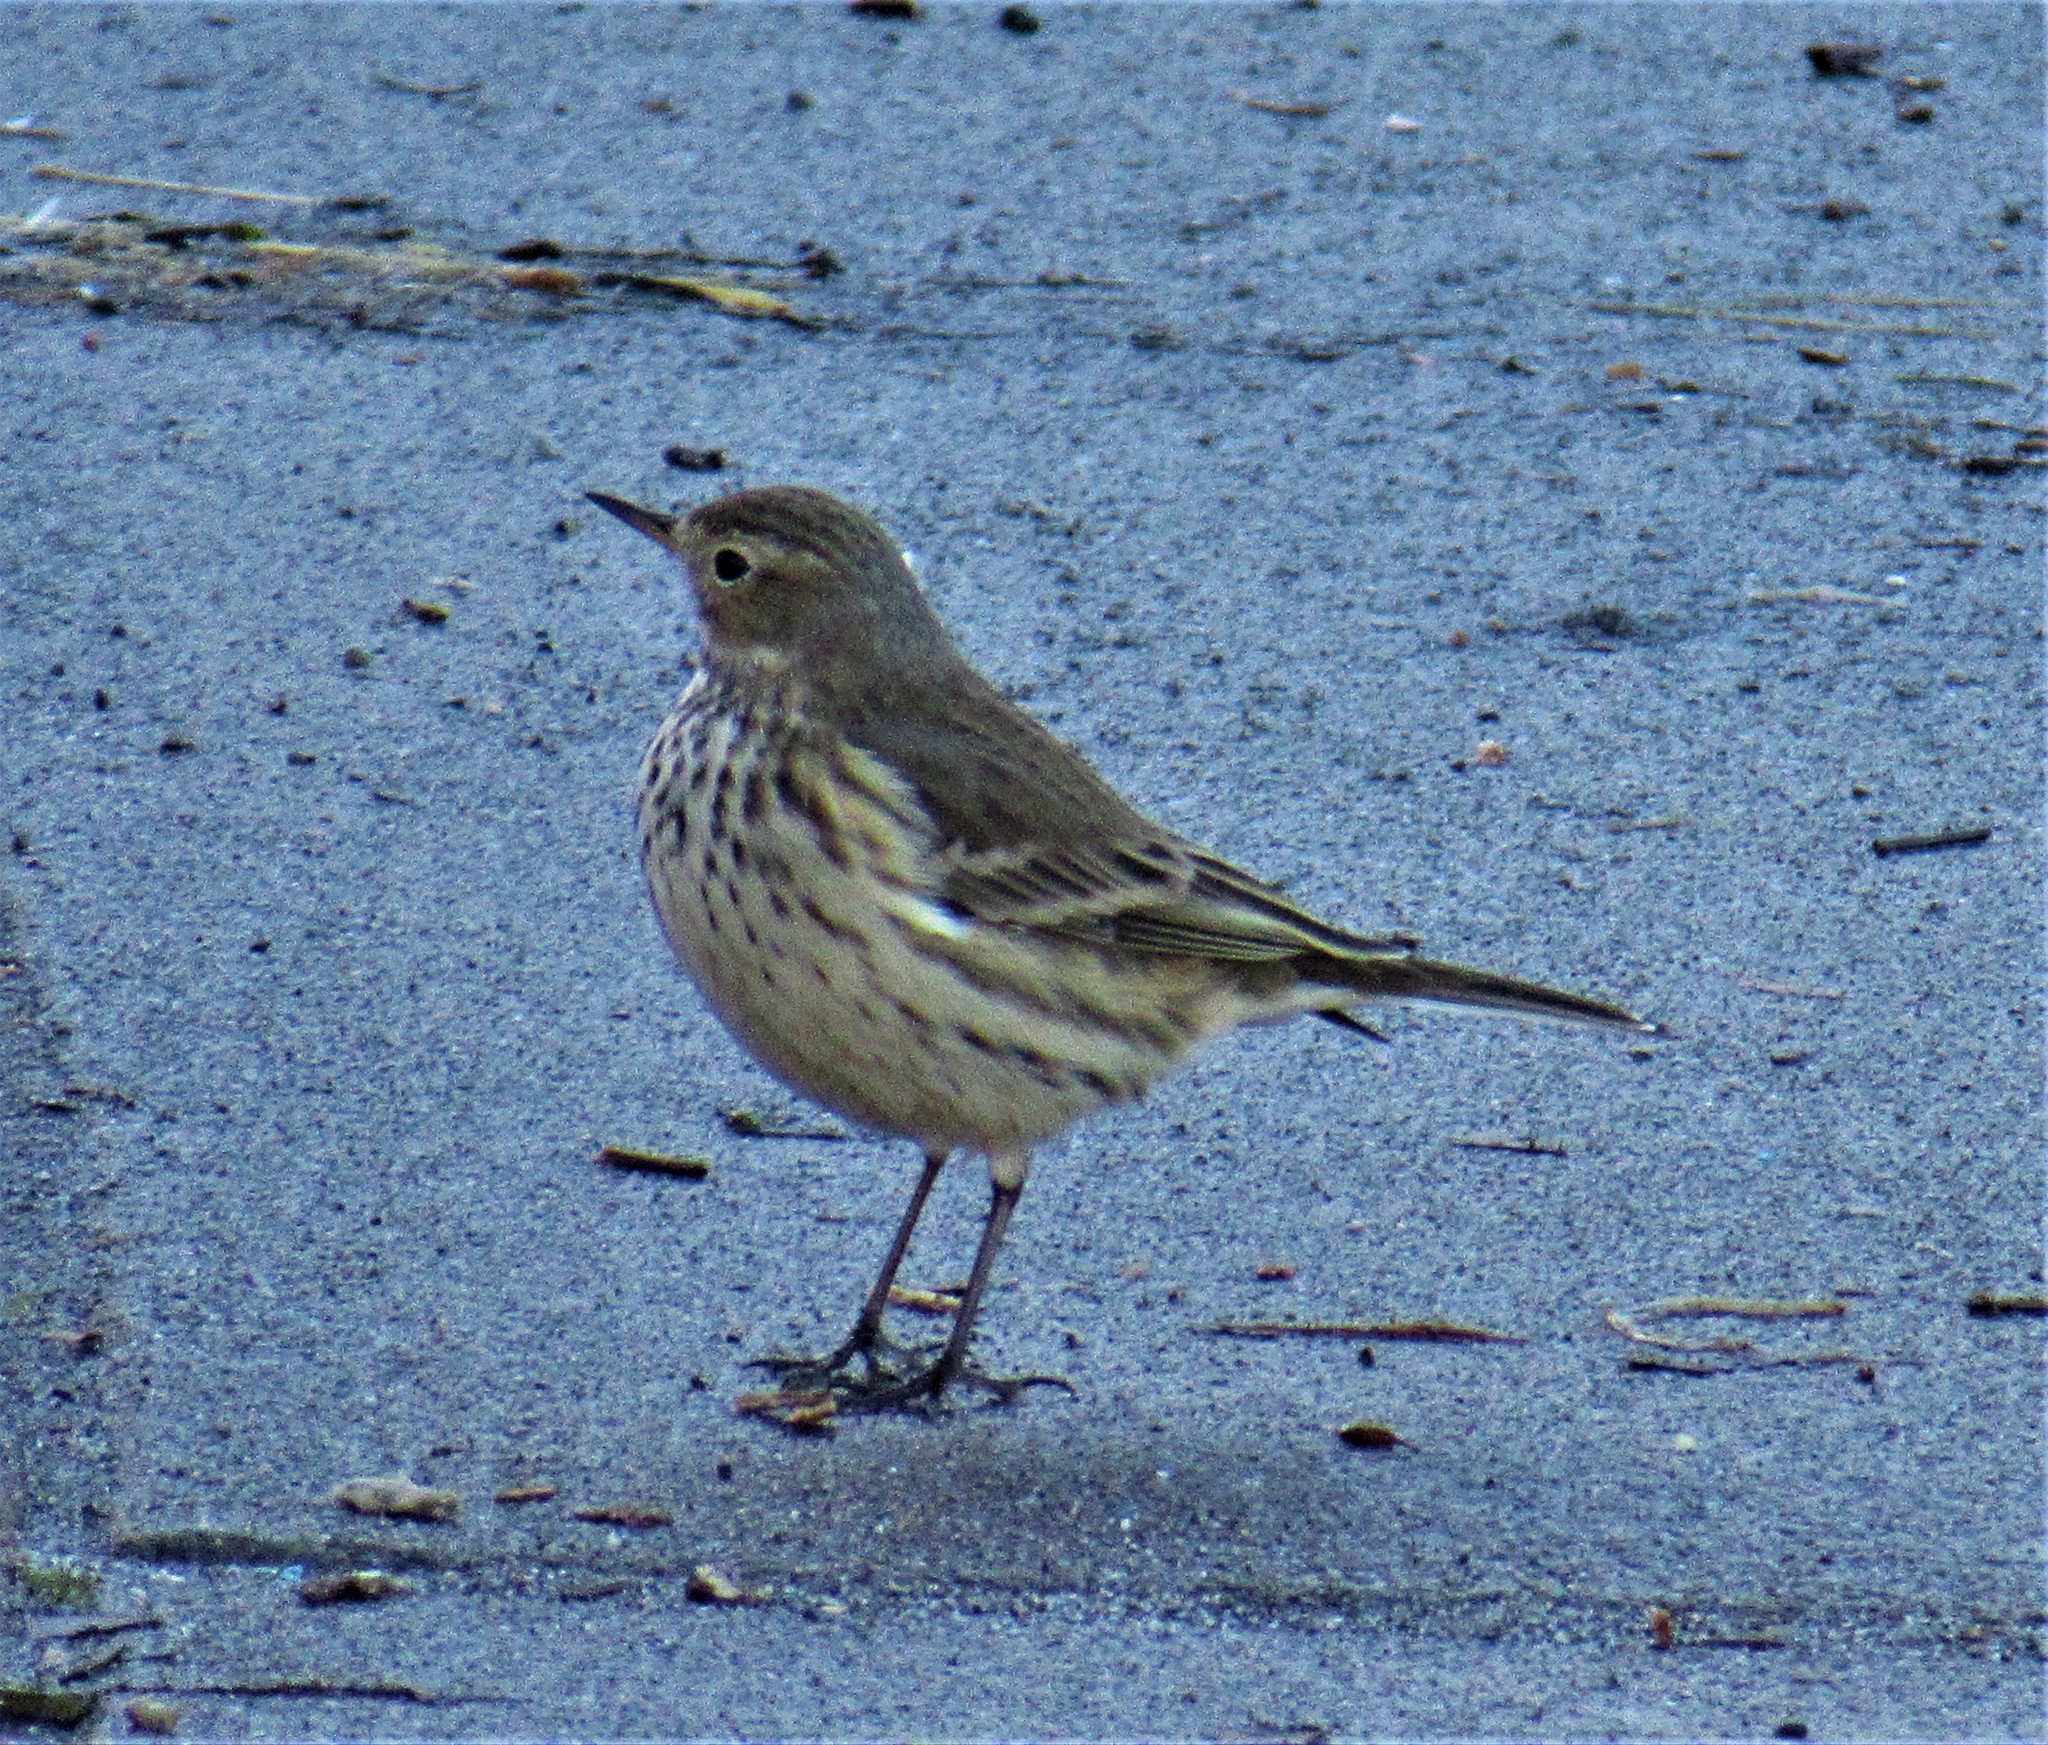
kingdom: Animalia
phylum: Chordata
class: Aves
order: Passeriformes
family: Motacillidae
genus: Anthus
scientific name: Anthus rubescens
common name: Buff-bellied pipit
